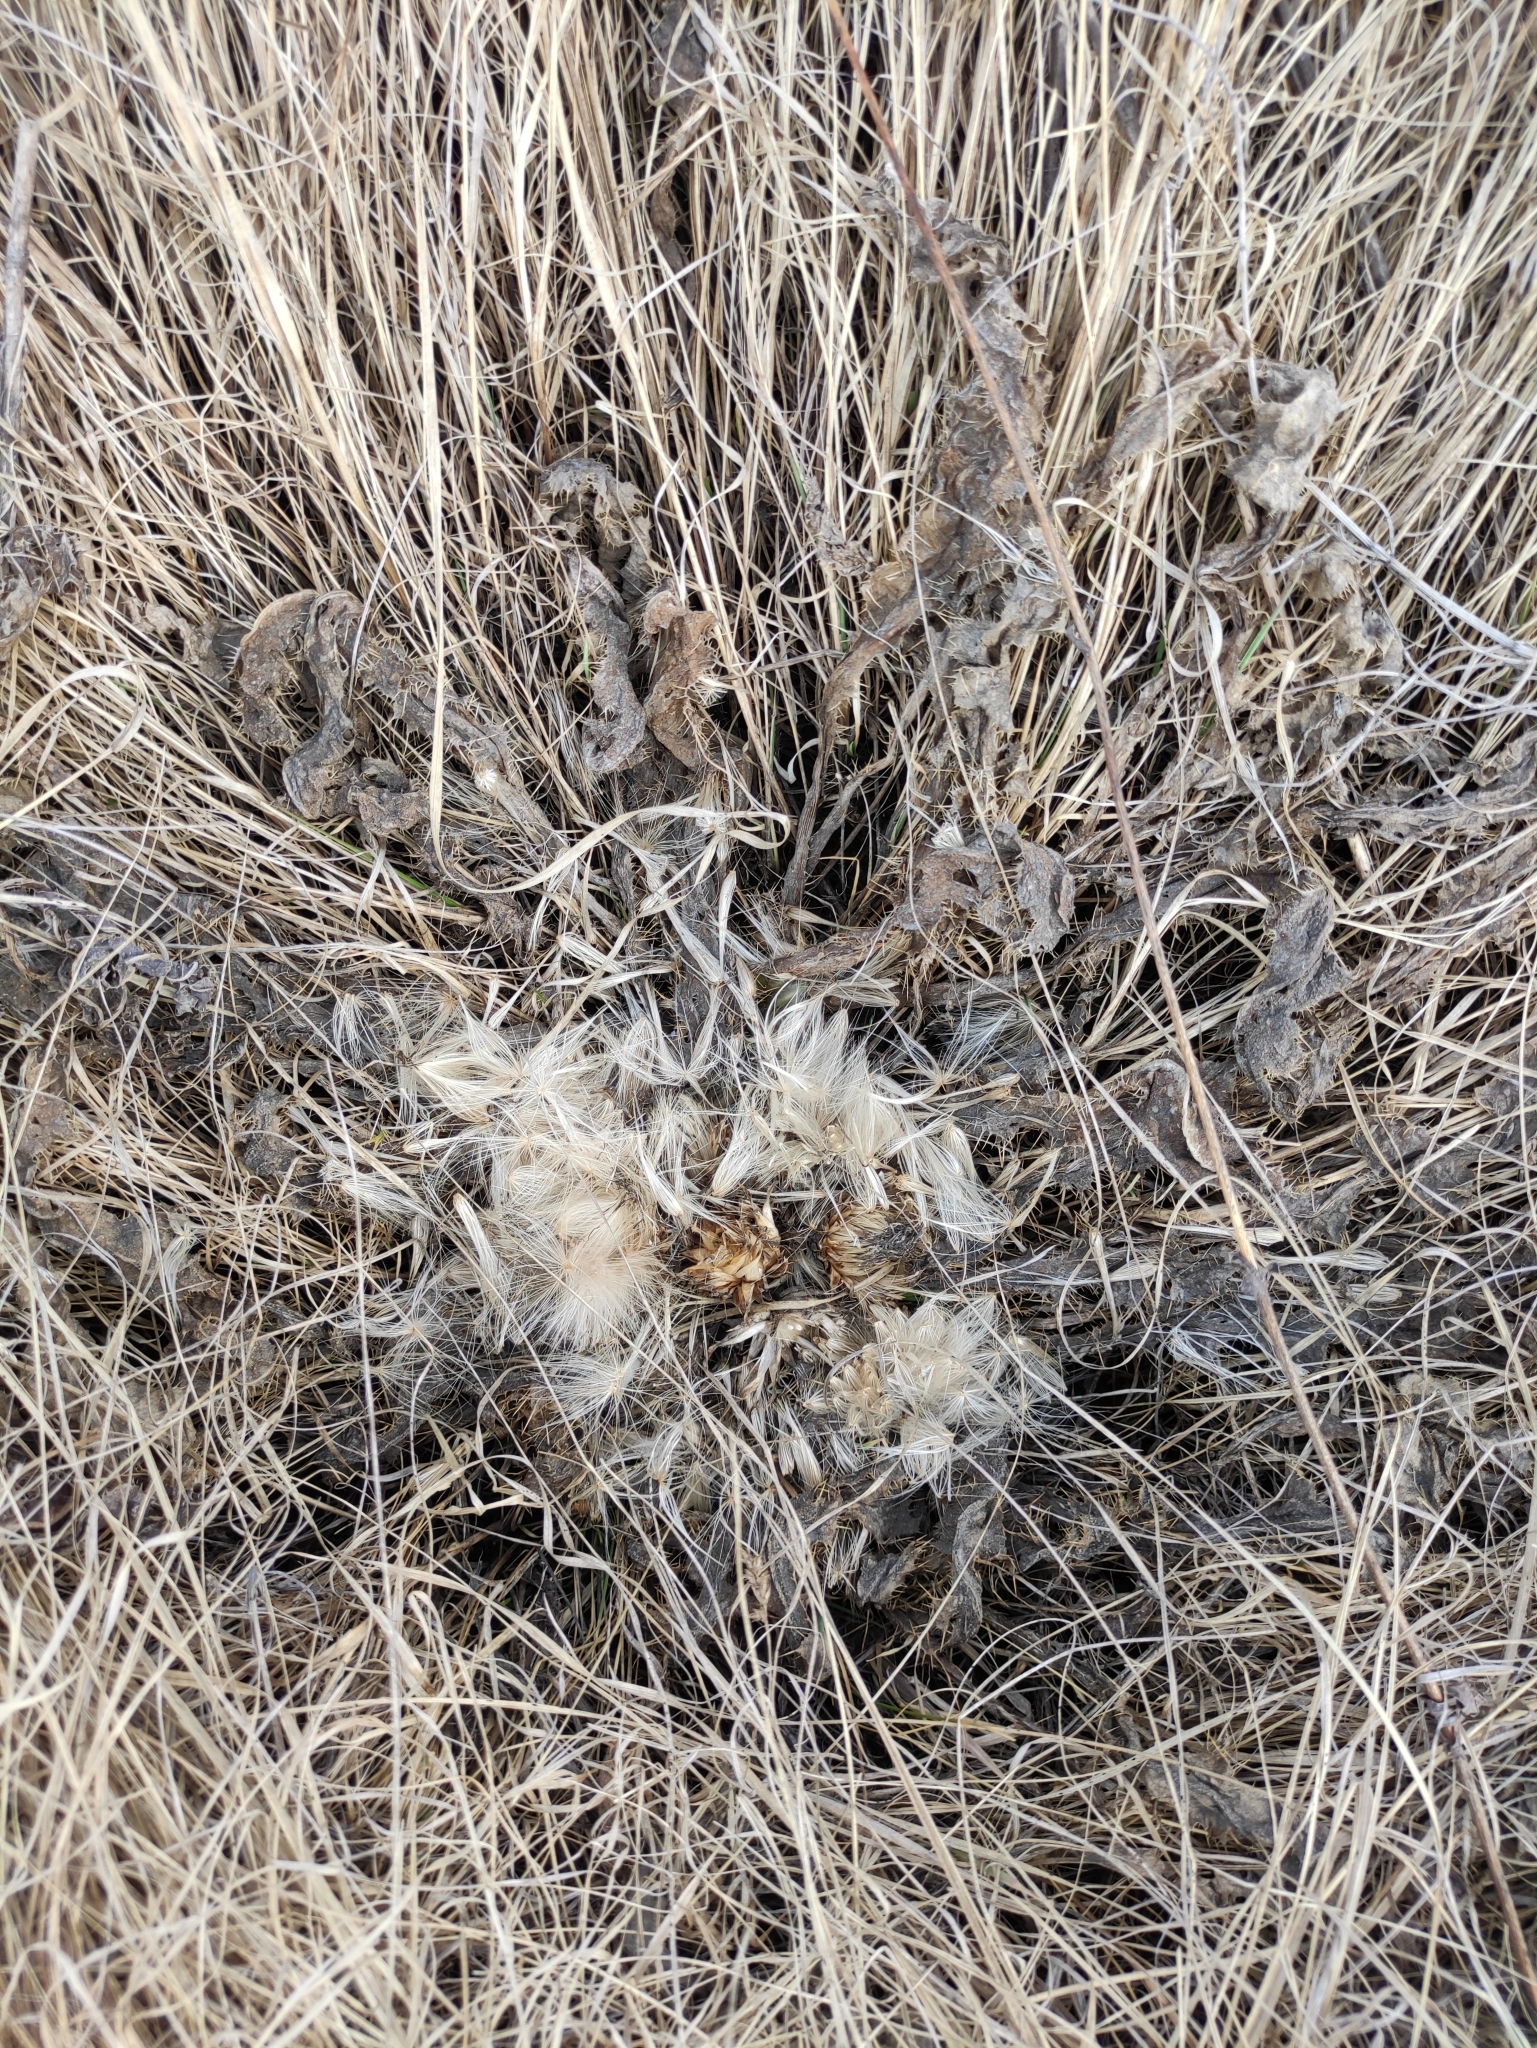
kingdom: Plantae
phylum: Tracheophyta
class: Magnoliopsida
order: Asterales
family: Asteraceae
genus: Cirsium
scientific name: Cirsium esculentum
